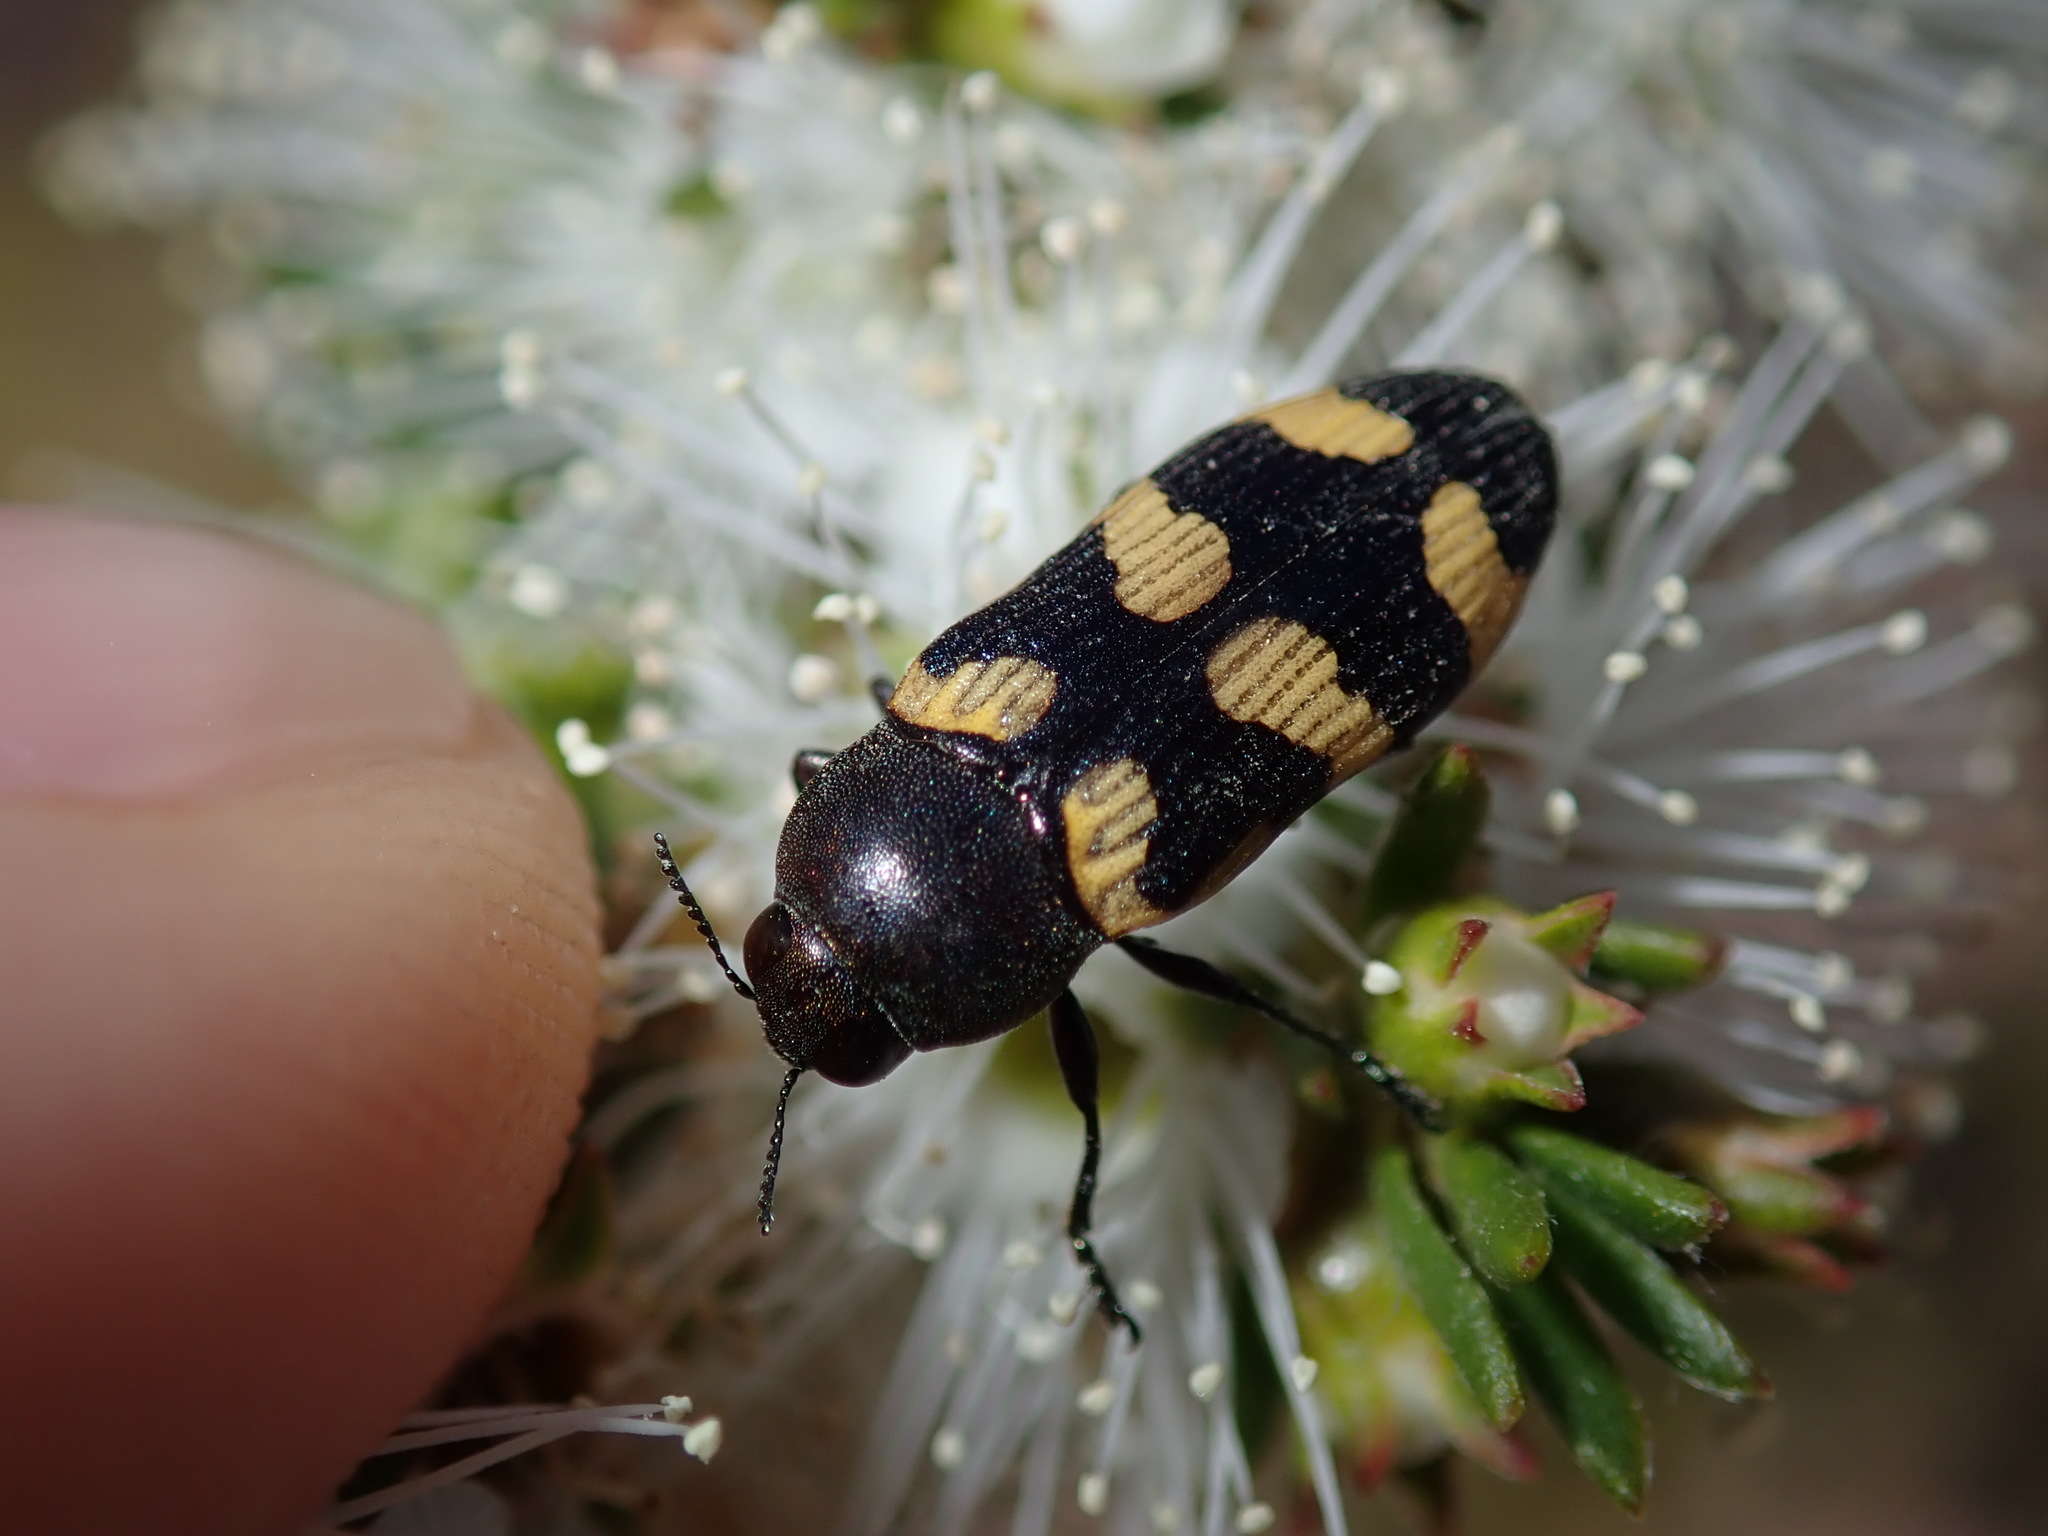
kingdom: Animalia
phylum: Arthropoda
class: Insecta
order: Coleoptera
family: Buprestidae
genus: Castiarina
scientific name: Castiarina inconspicua
